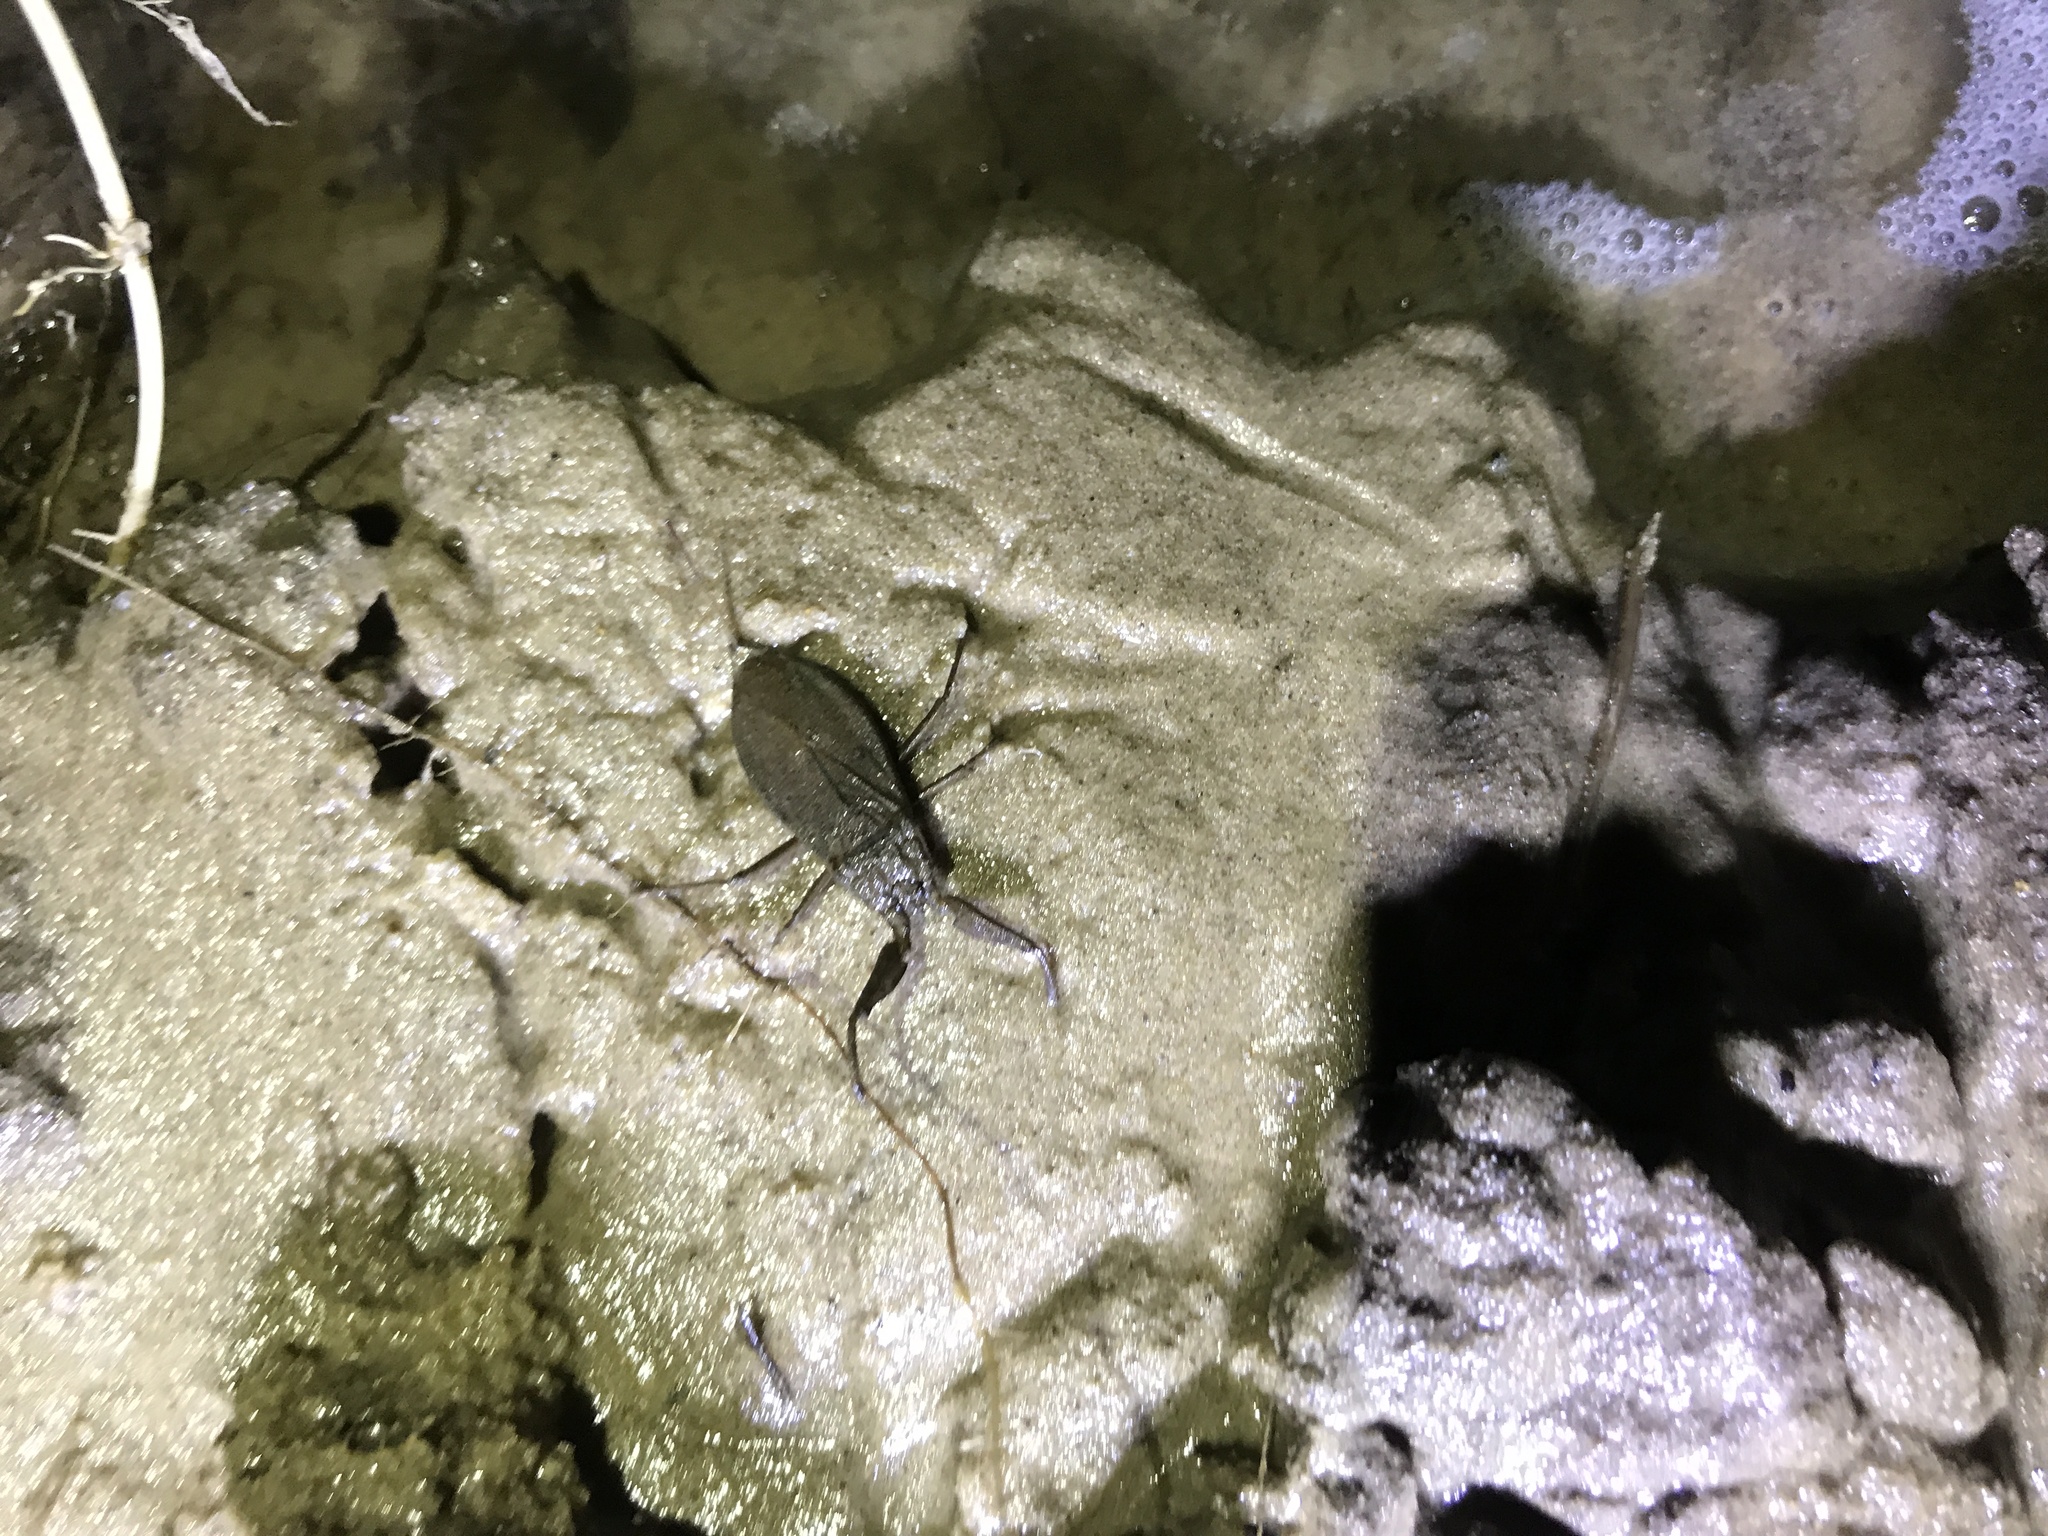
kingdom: Animalia
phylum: Arthropoda
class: Insecta
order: Hemiptera
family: Nepidae
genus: Nepa
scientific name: Nepa cinerea
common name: Water scorpion
